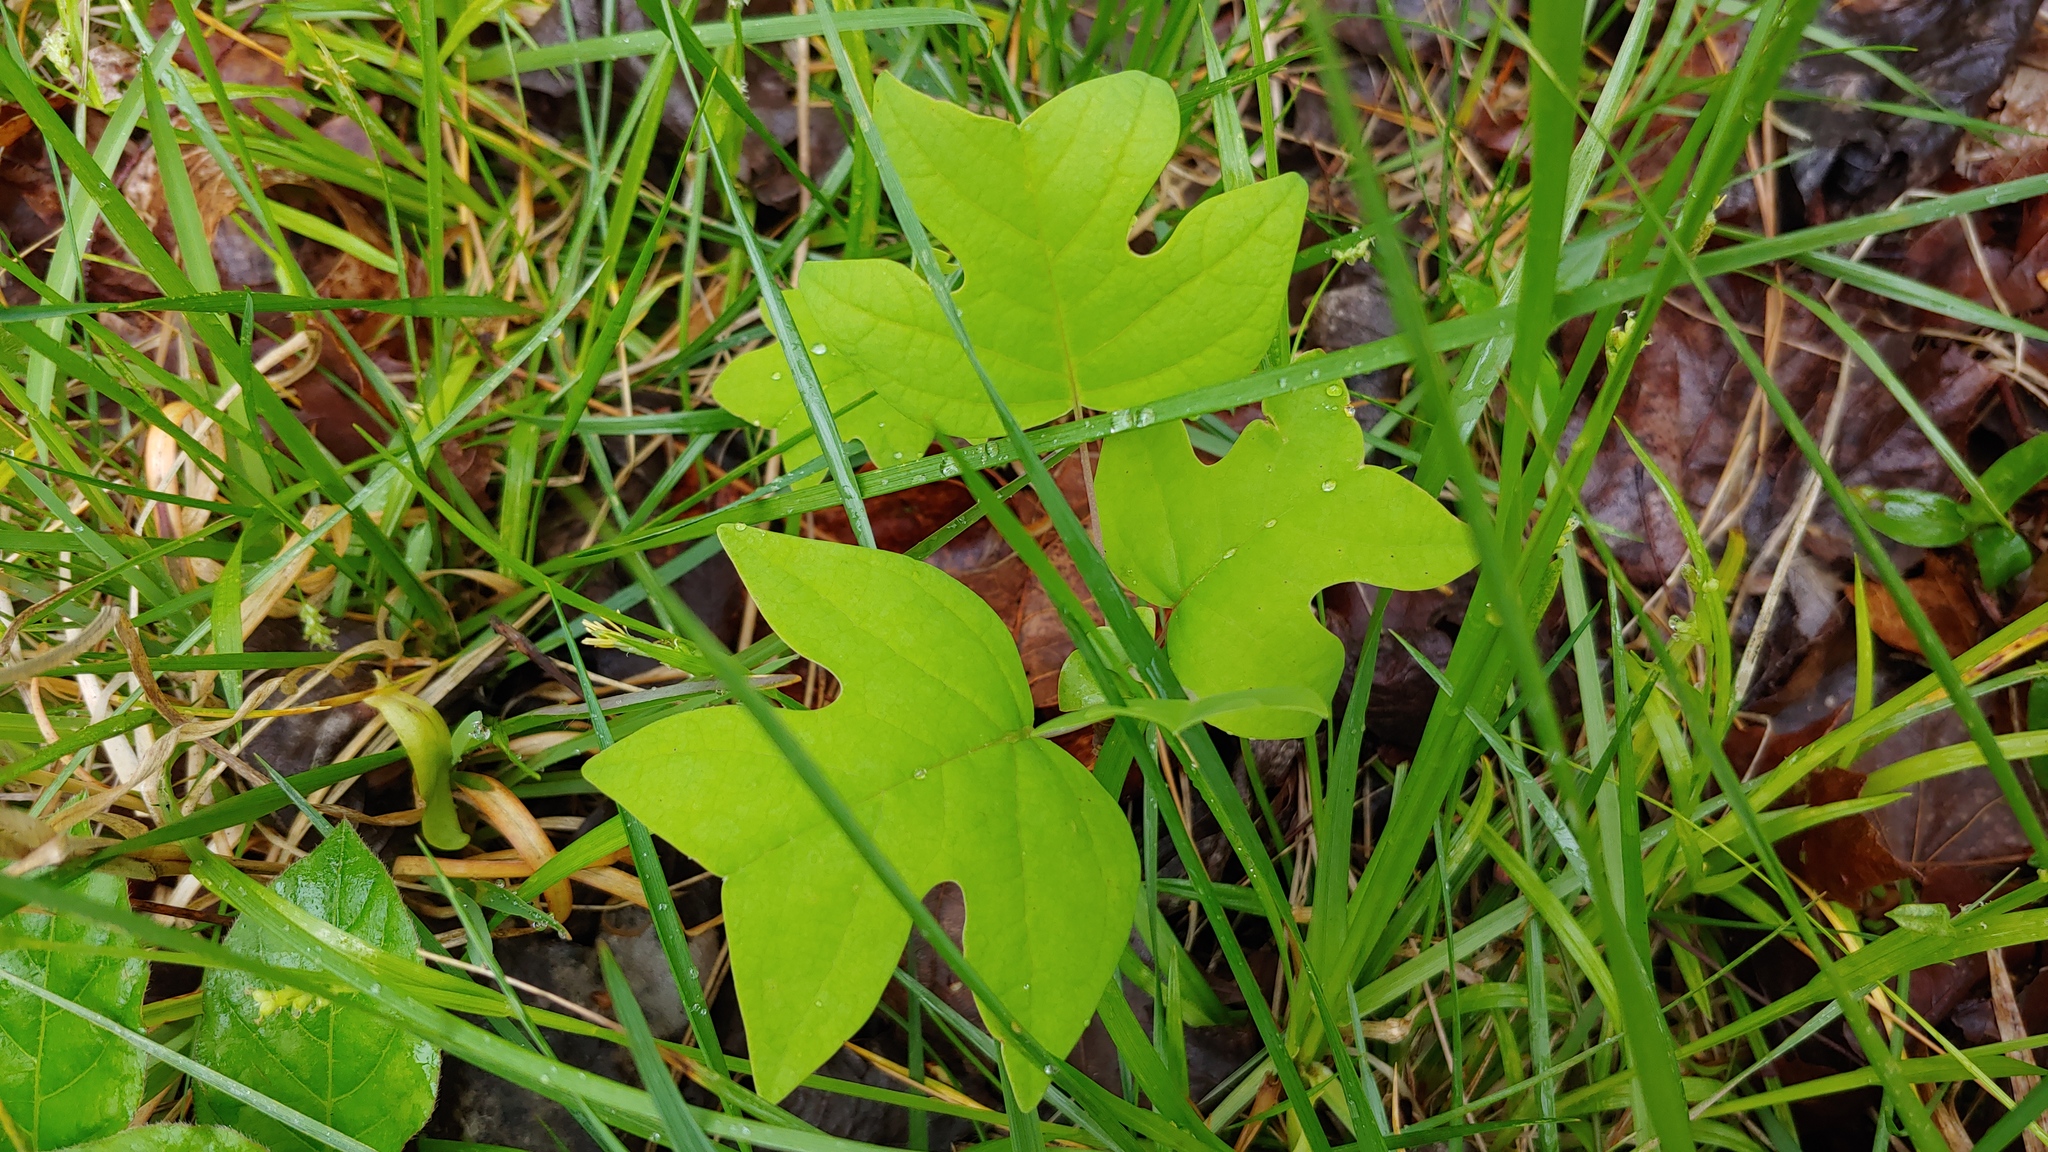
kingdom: Plantae
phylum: Tracheophyta
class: Magnoliopsida
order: Magnoliales
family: Magnoliaceae
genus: Liriodendron
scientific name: Liriodendron tulipifera
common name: Tulip tree
